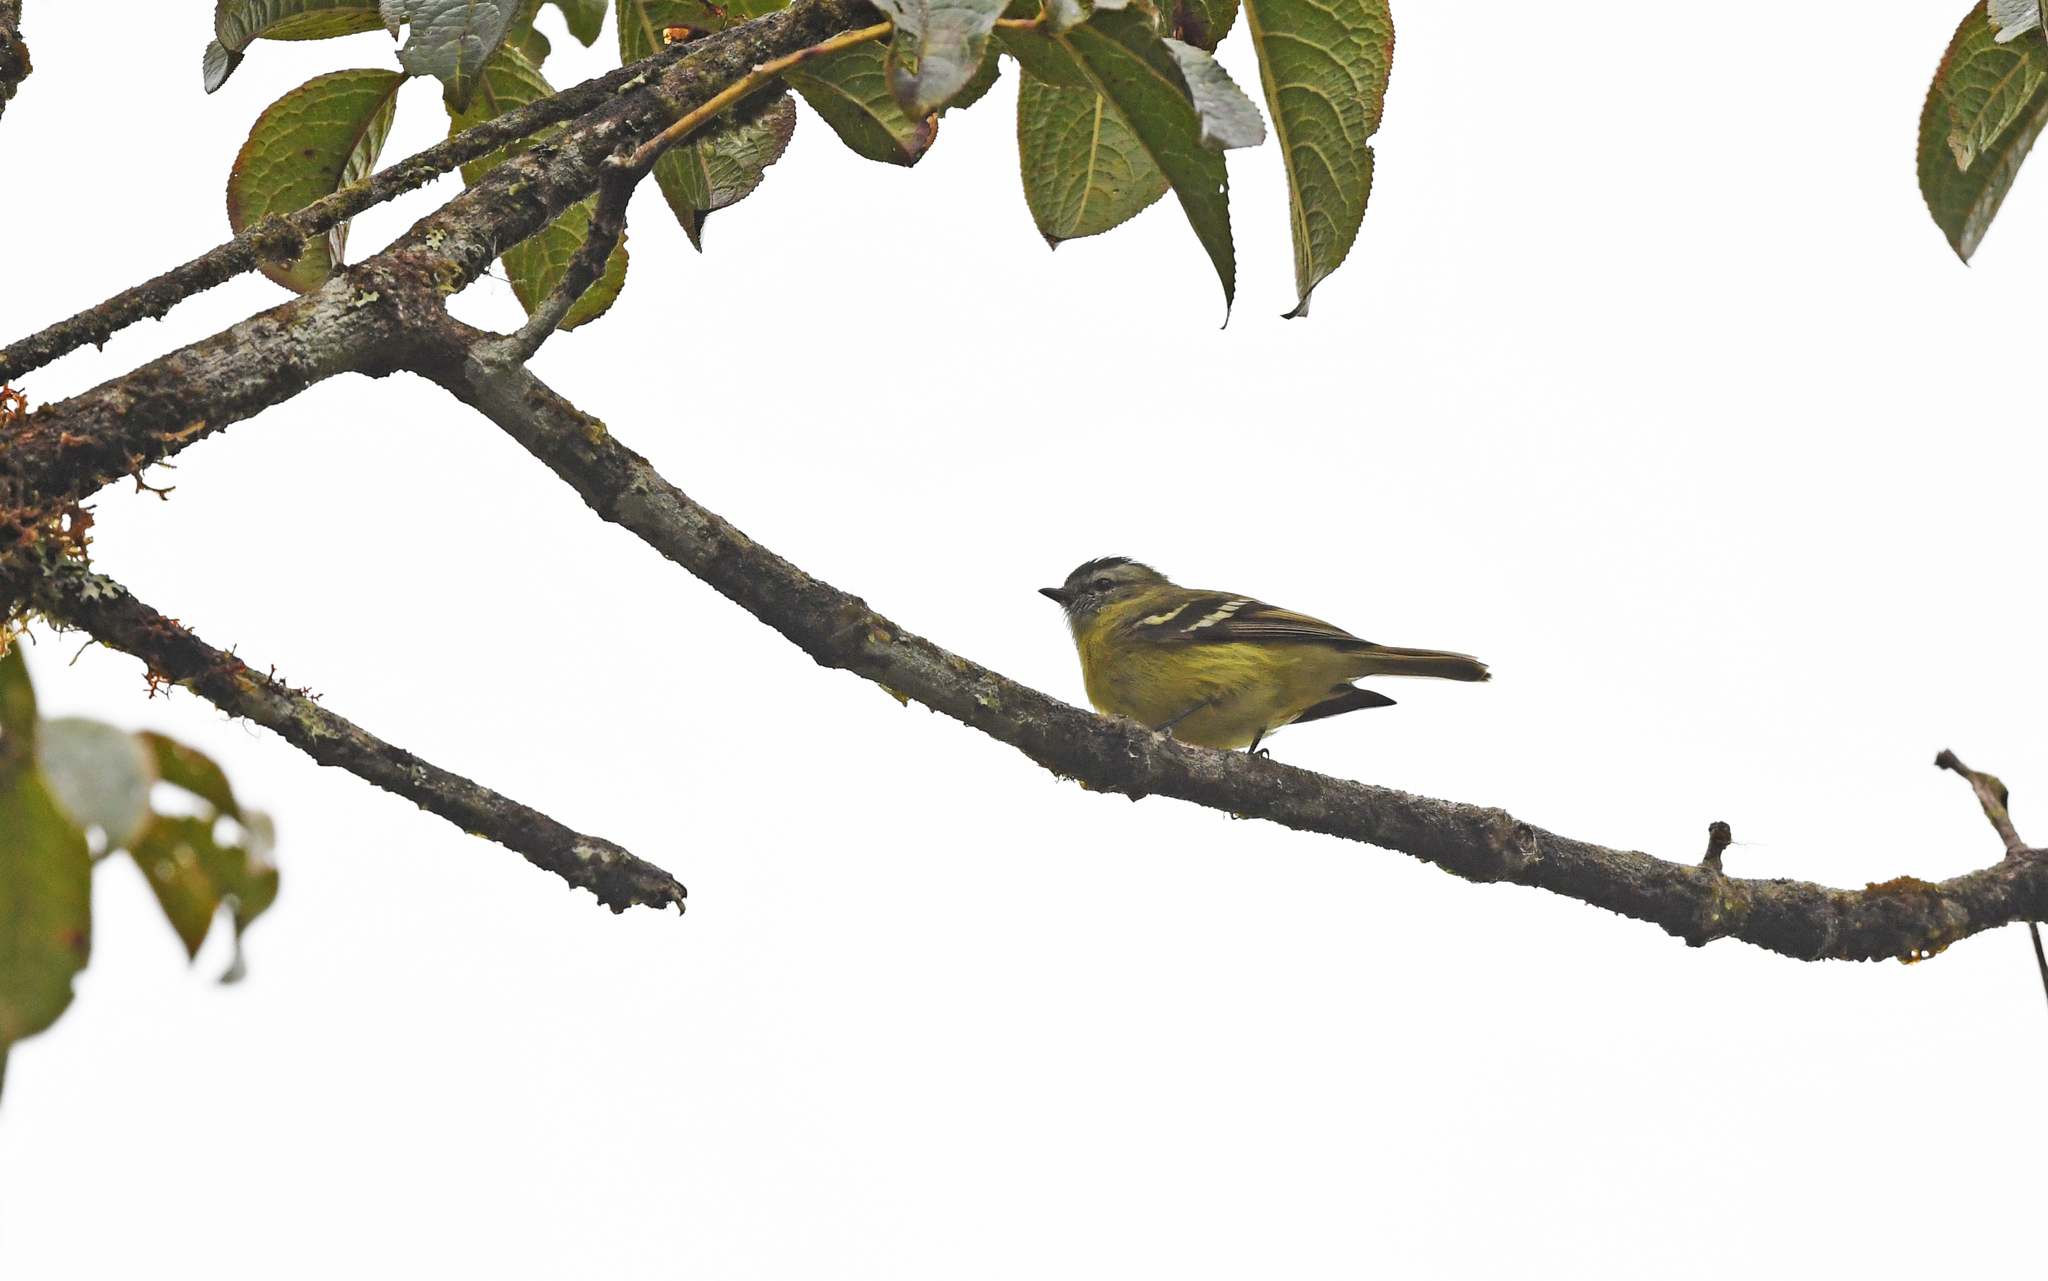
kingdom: Animalia
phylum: Chordata
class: Aves
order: Passeriformes
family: Tyrannidae
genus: Phyllomyias
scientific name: Phyllomyias nigrocapillus
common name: Black-capped tyrannulet
